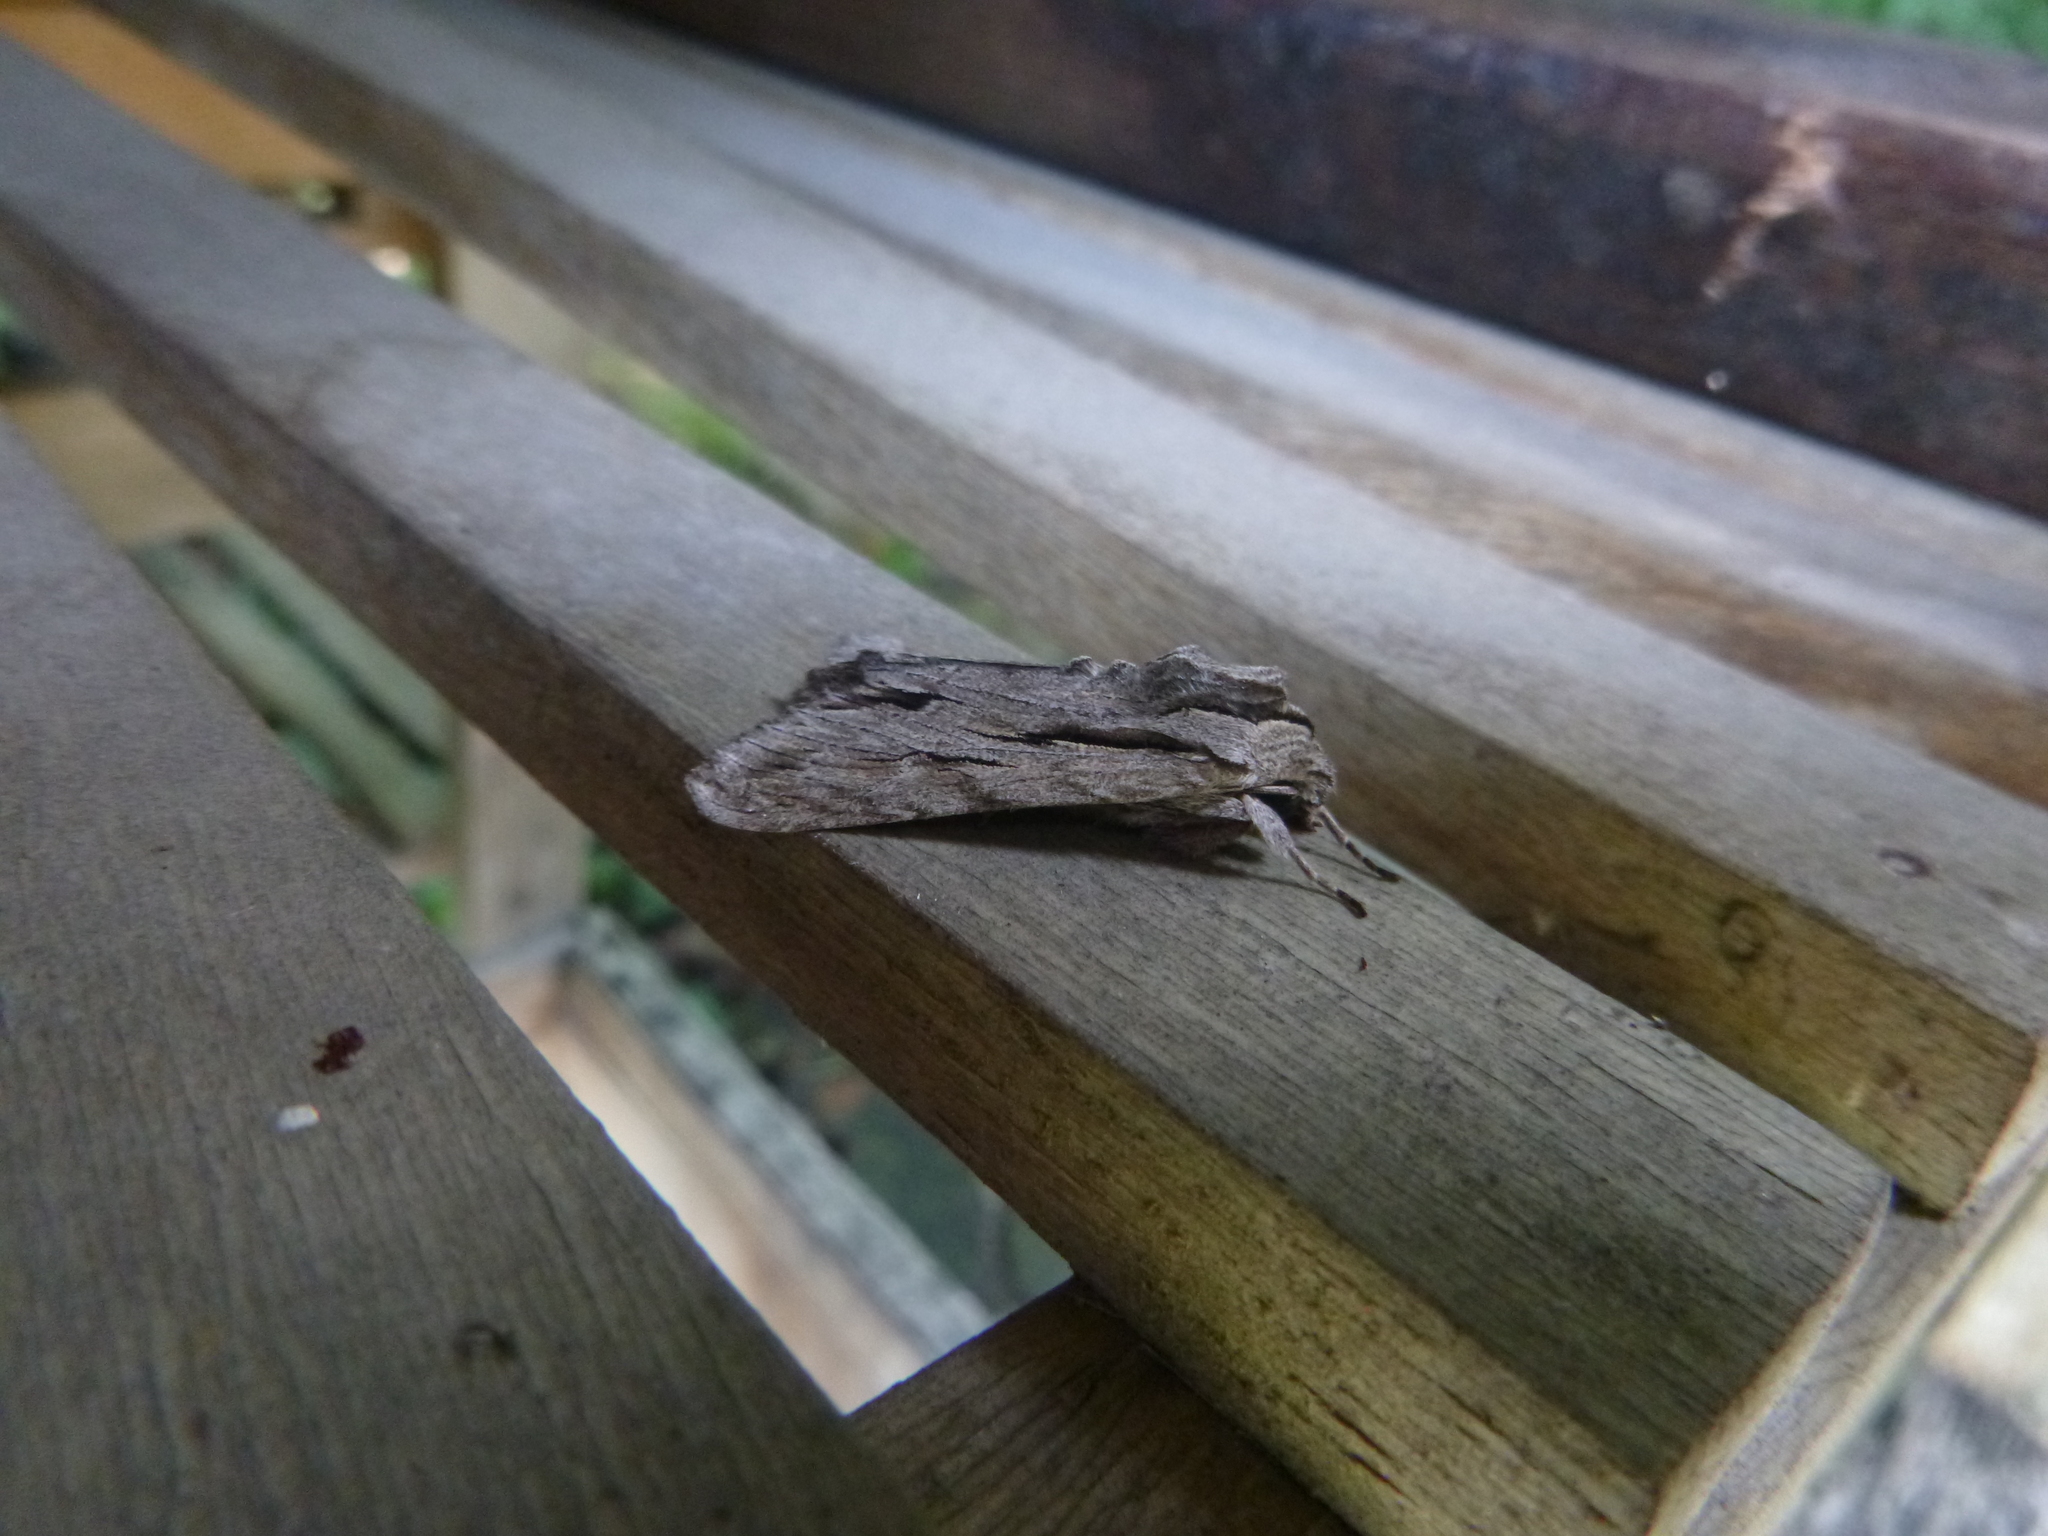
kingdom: Animalia
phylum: Arthropoda
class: Insecta
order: Lepidoptera
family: Noctuidae
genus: Auchmis
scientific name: Auchmis detersa
